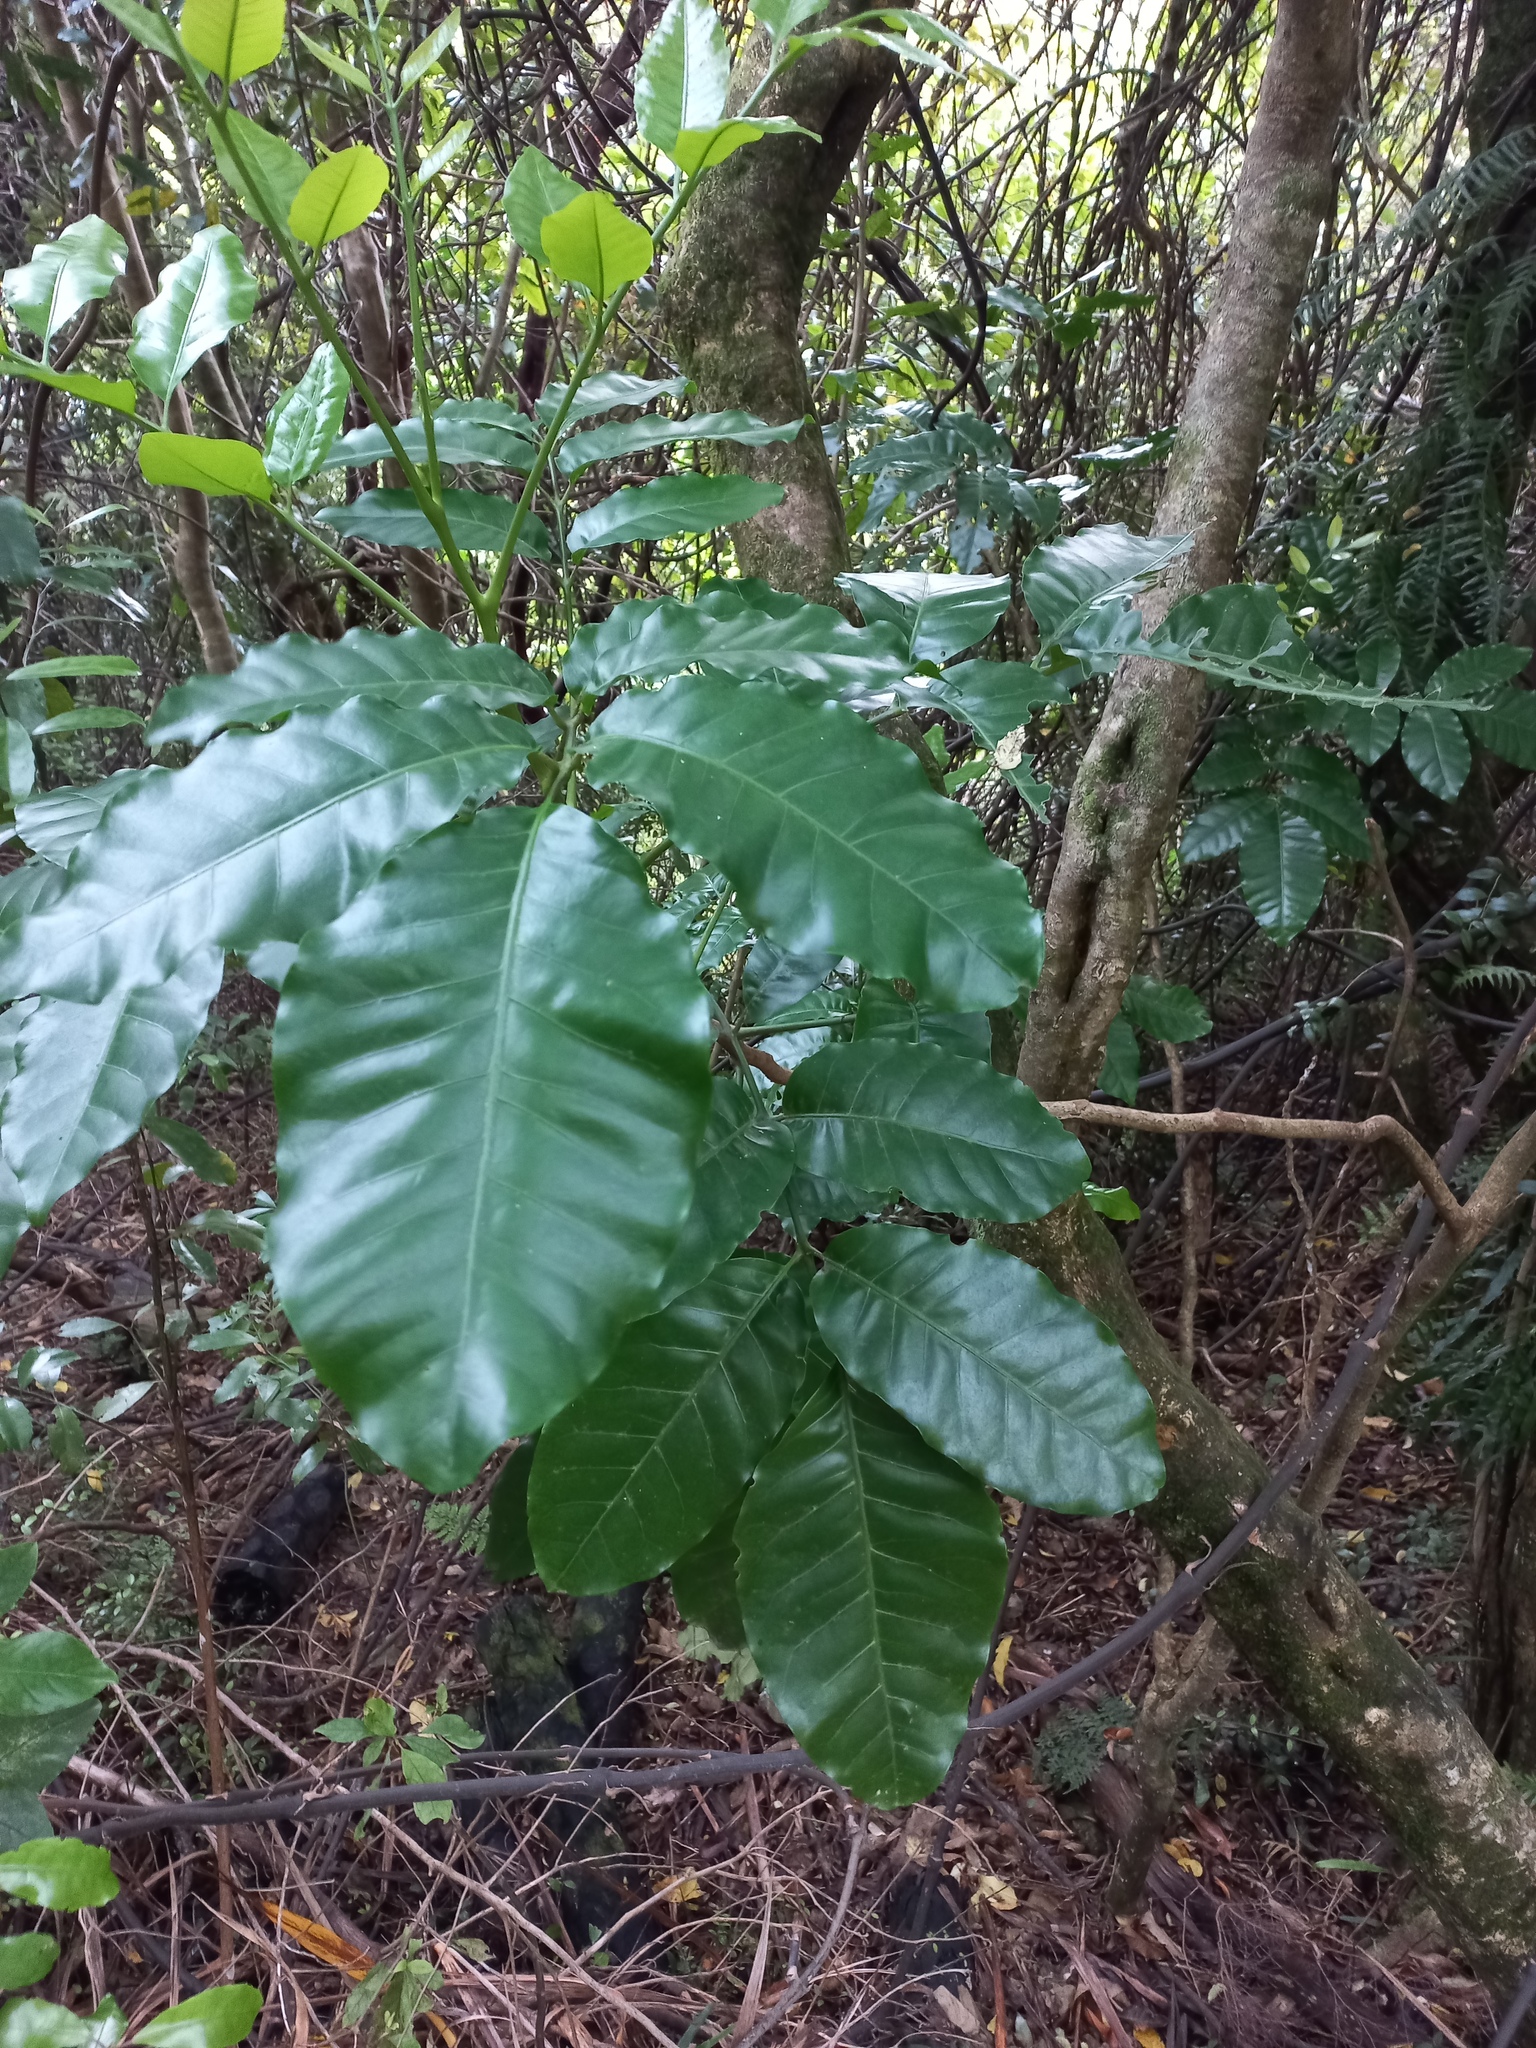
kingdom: Plantae
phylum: Tracheophyta
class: Magnoliopsida
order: Sapindales
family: Meliaceae
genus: Didymocheton
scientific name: Didymocheton spectabilis
